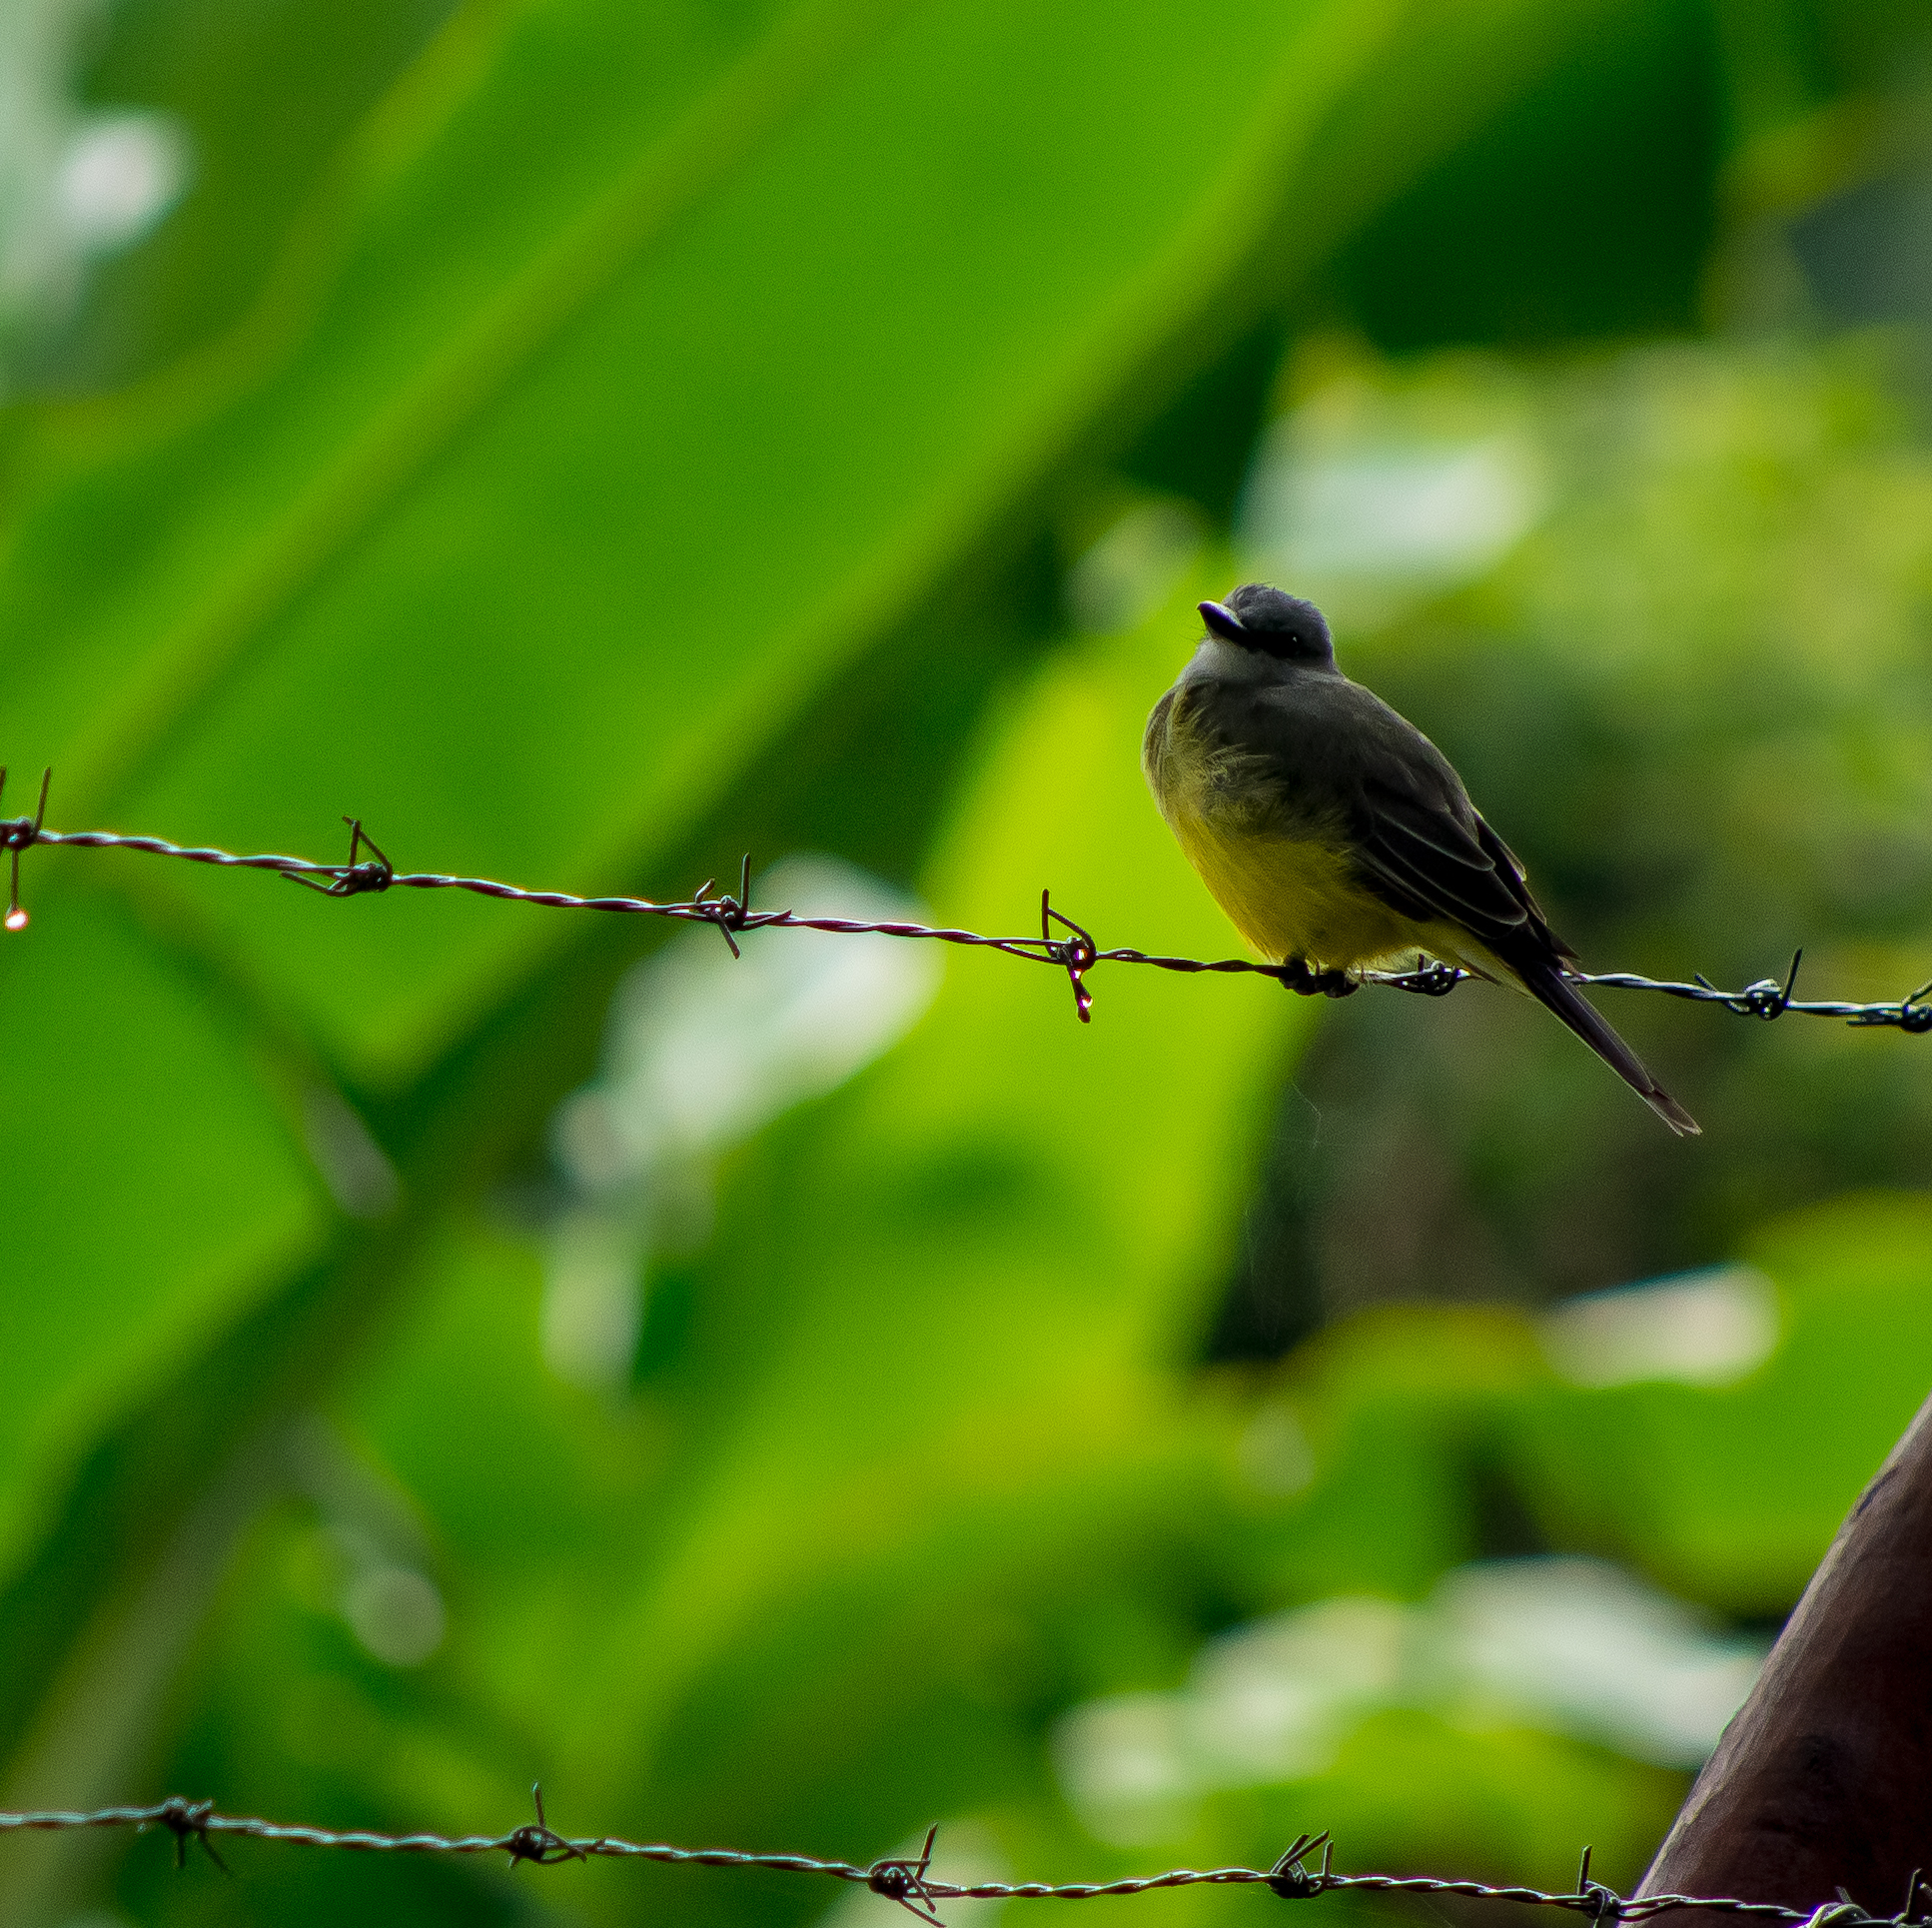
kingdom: Animalia
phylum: Chordata
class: Aves
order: Passeriformes
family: Tyrannidae
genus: Tyrannus
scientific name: Tyrannus melancholicus
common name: Tropical kingbird
